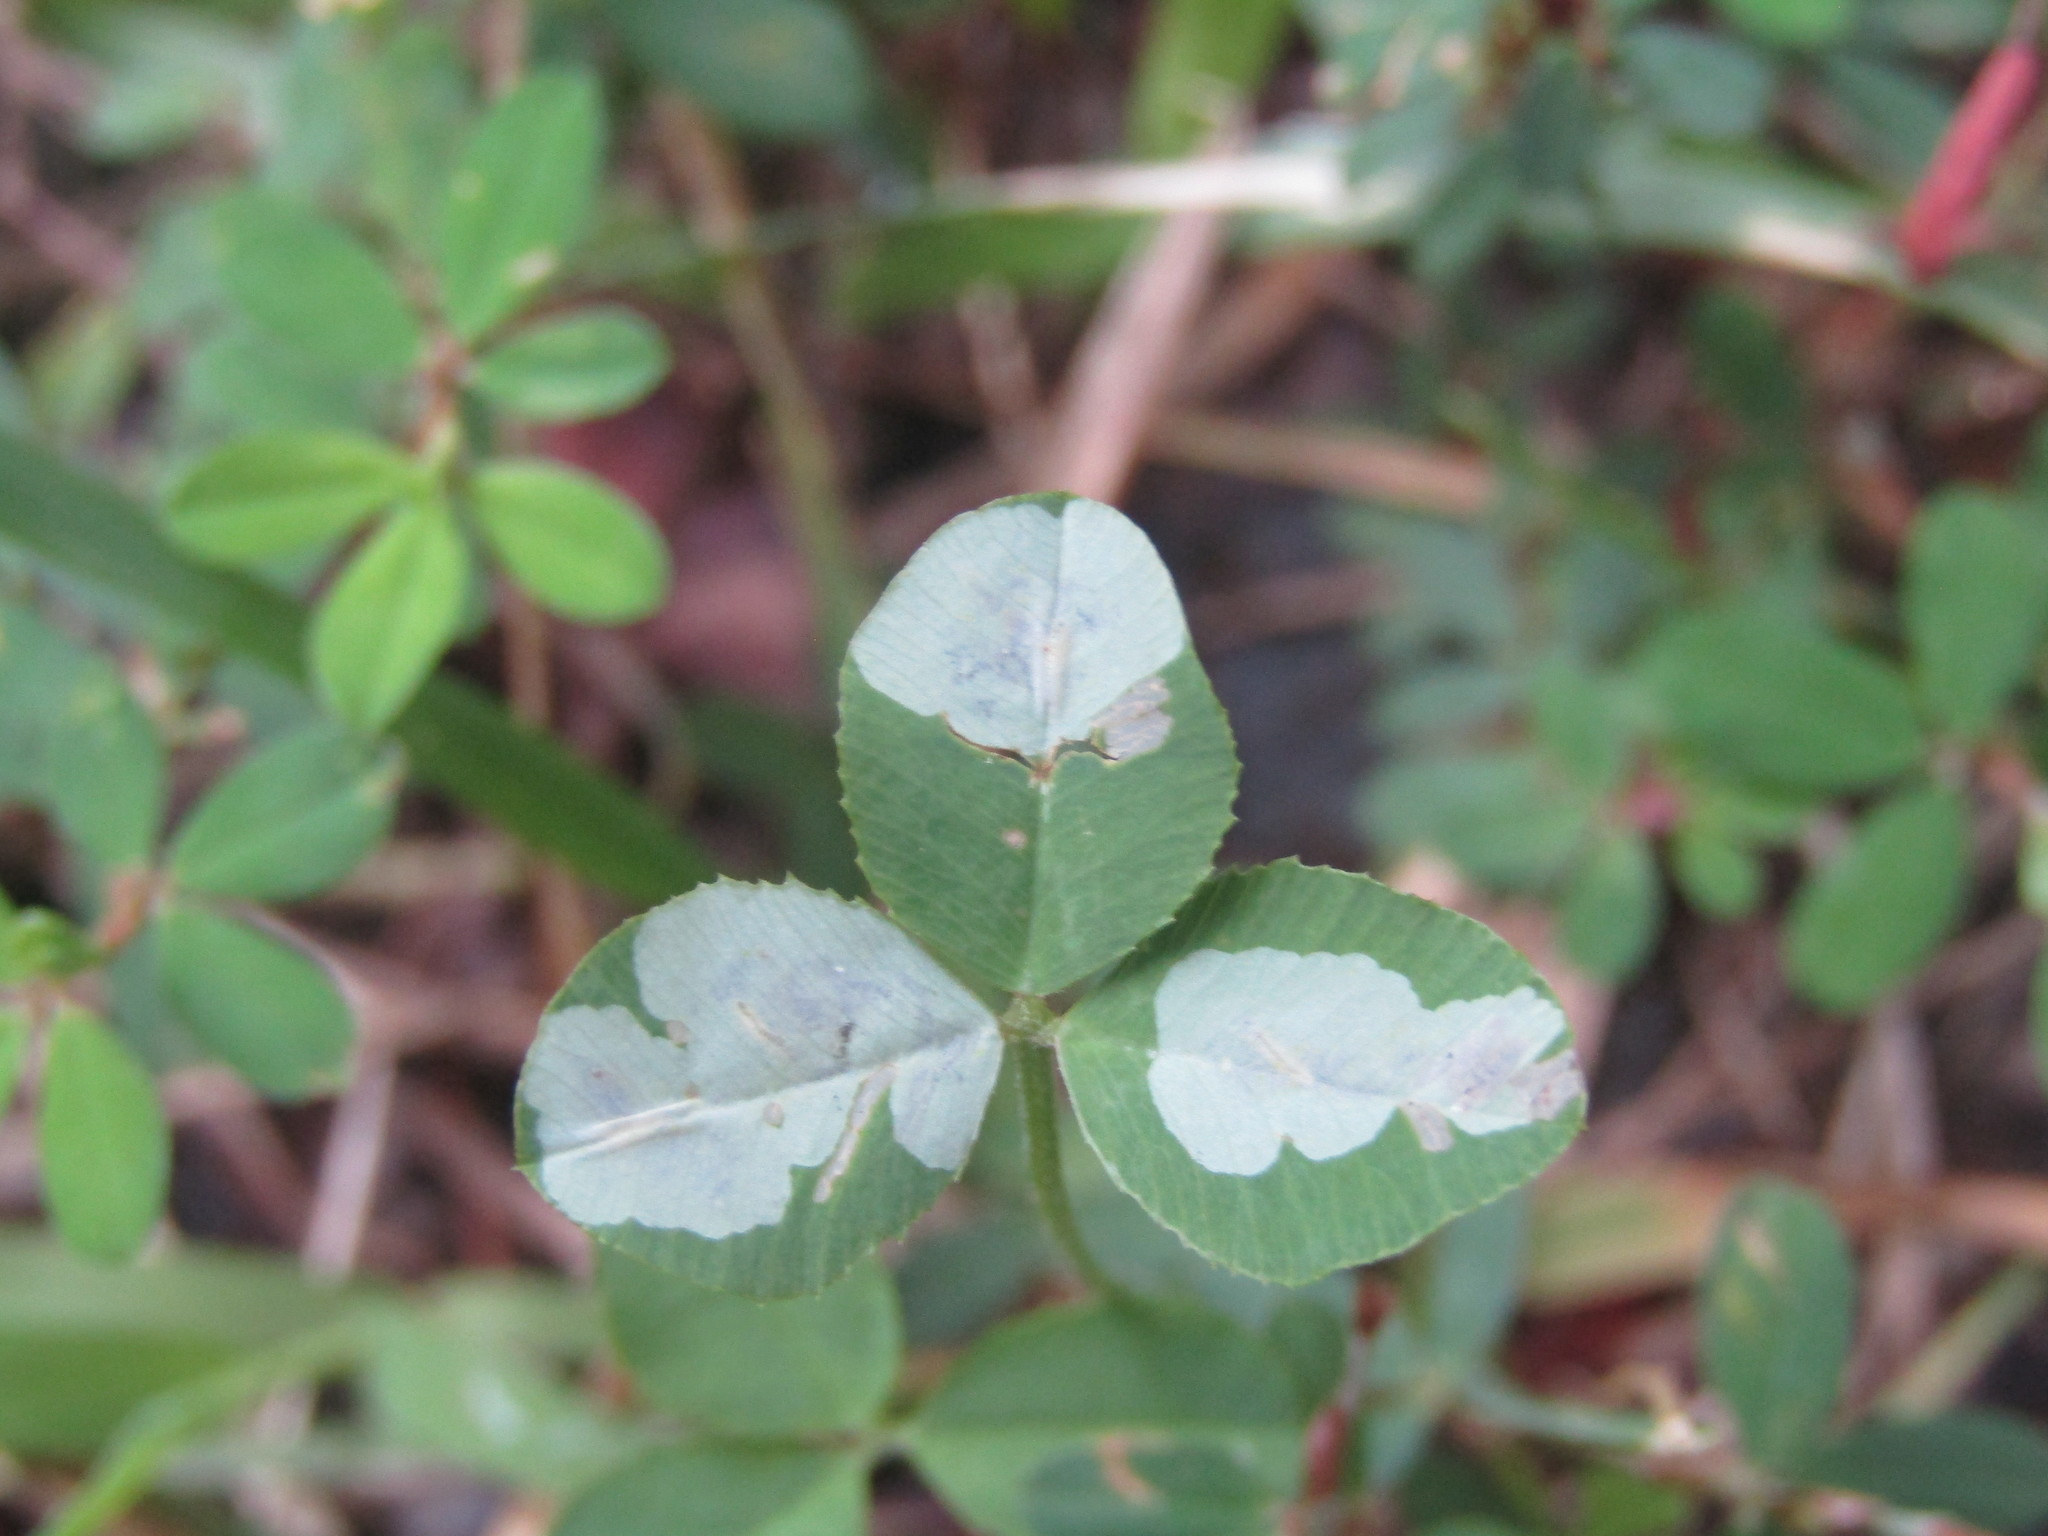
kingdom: Animalia
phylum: Arthropoda
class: Insecta
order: Lepidoptera
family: Gracillariidae
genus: Porphyrosela
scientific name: Porphyrosela minuta
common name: Leaf miner moth
